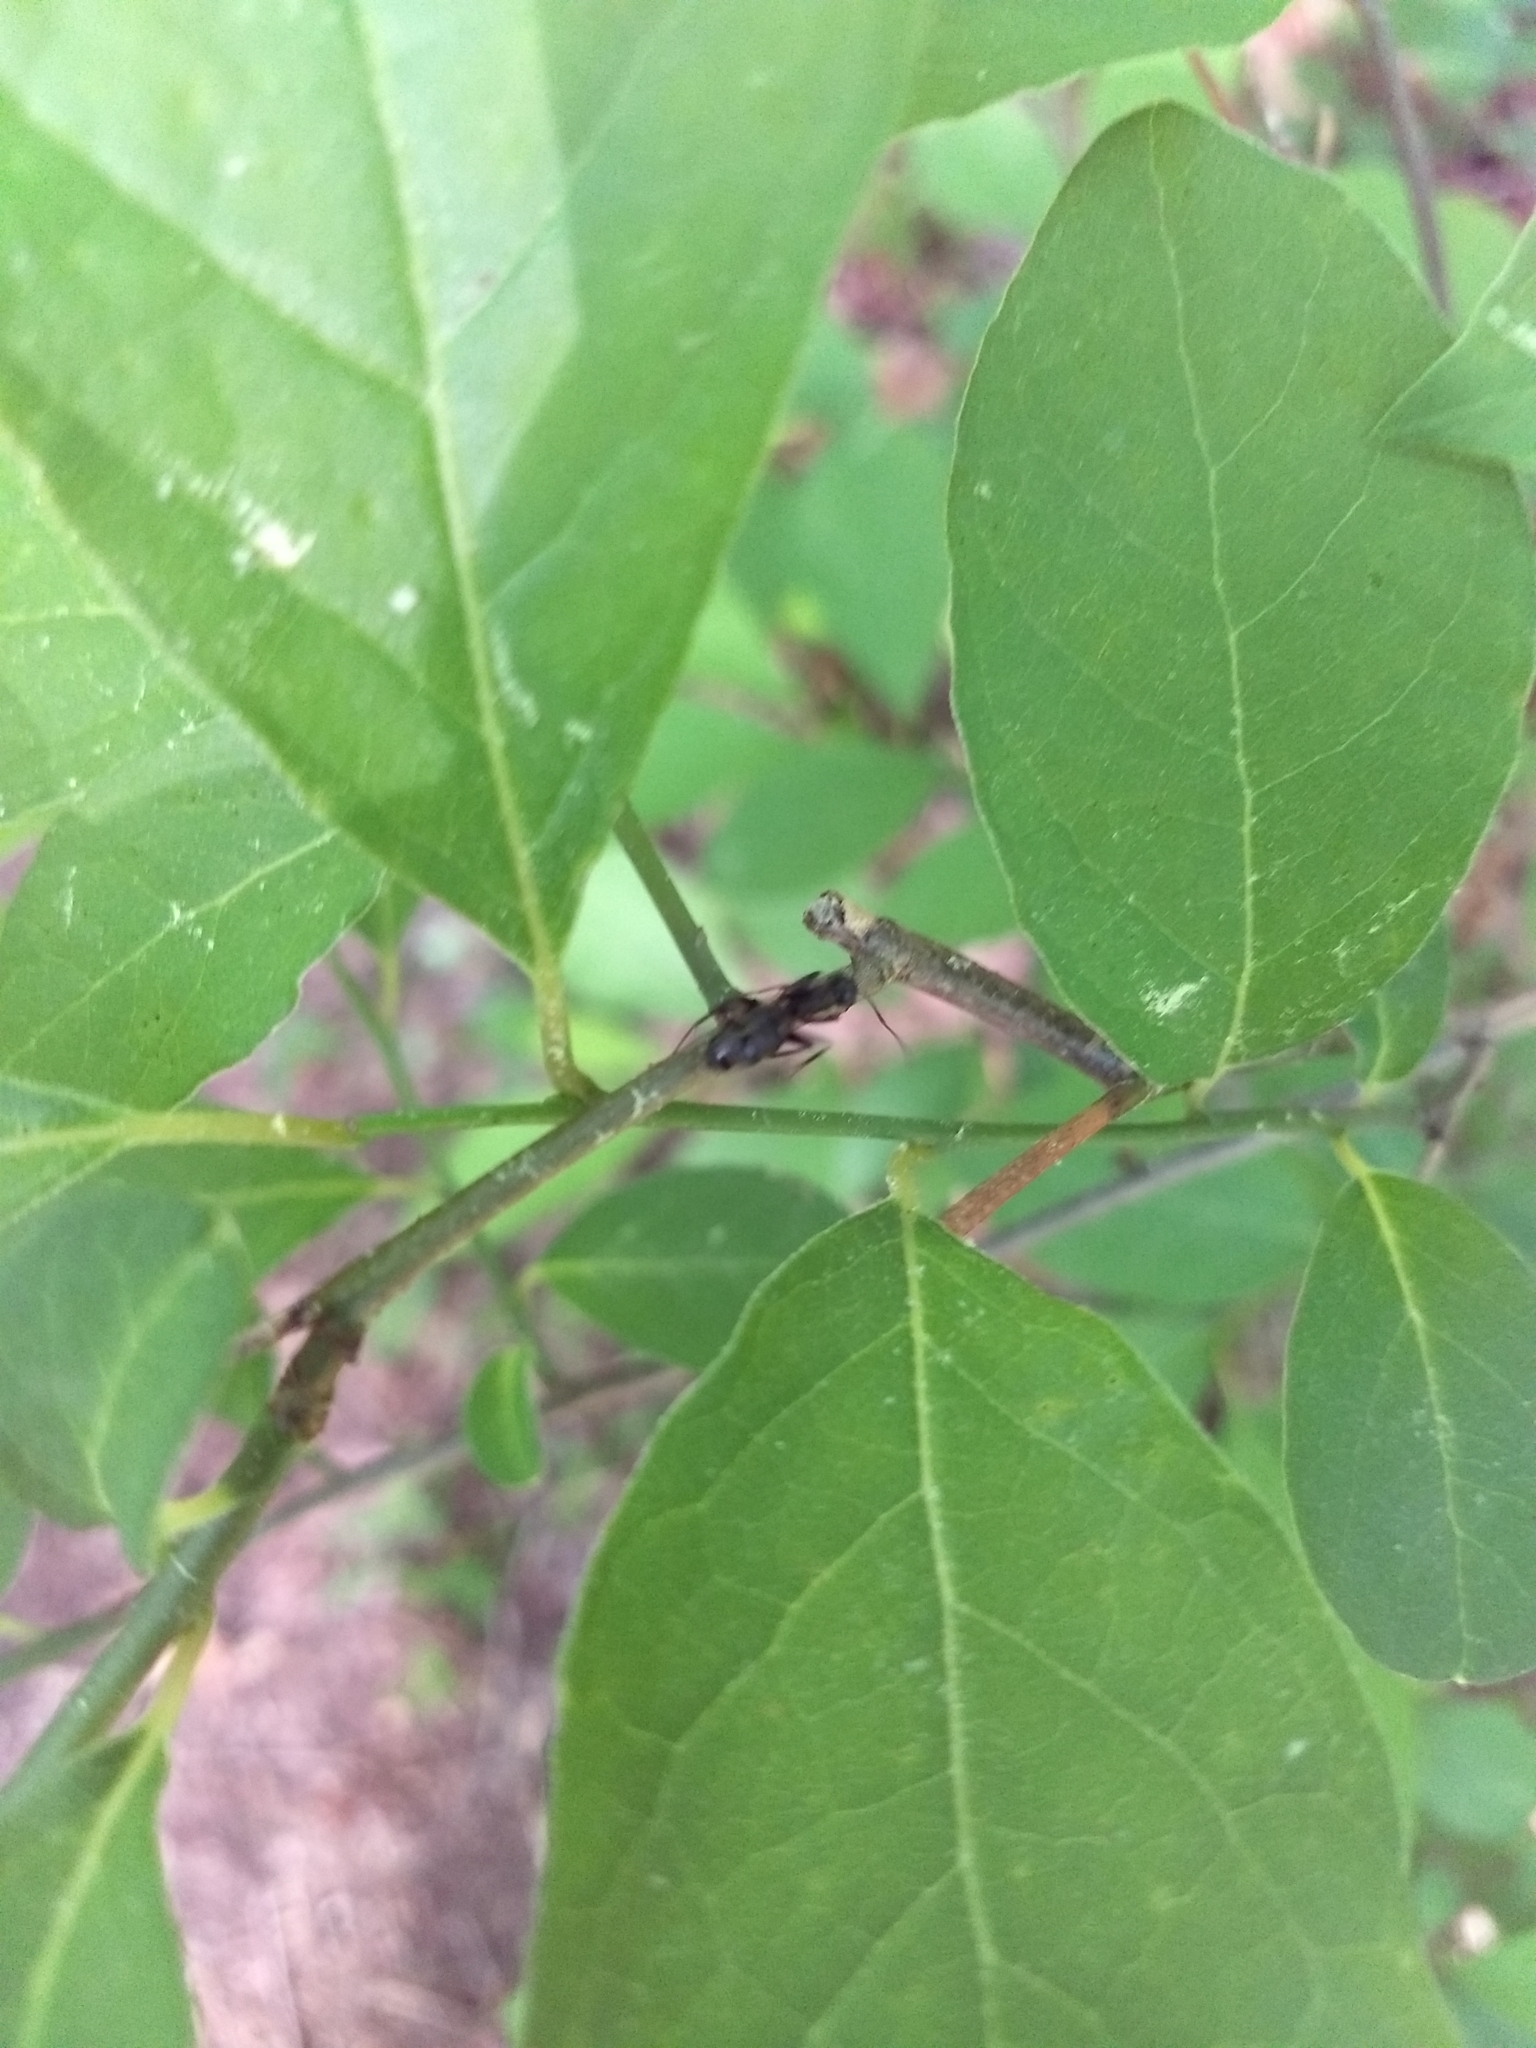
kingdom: Plantae
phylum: Tracheophyta
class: Magnoliopsida
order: Laurales
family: Lauraceae
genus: Lindera
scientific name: Lindera benzoin
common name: Spicebush
